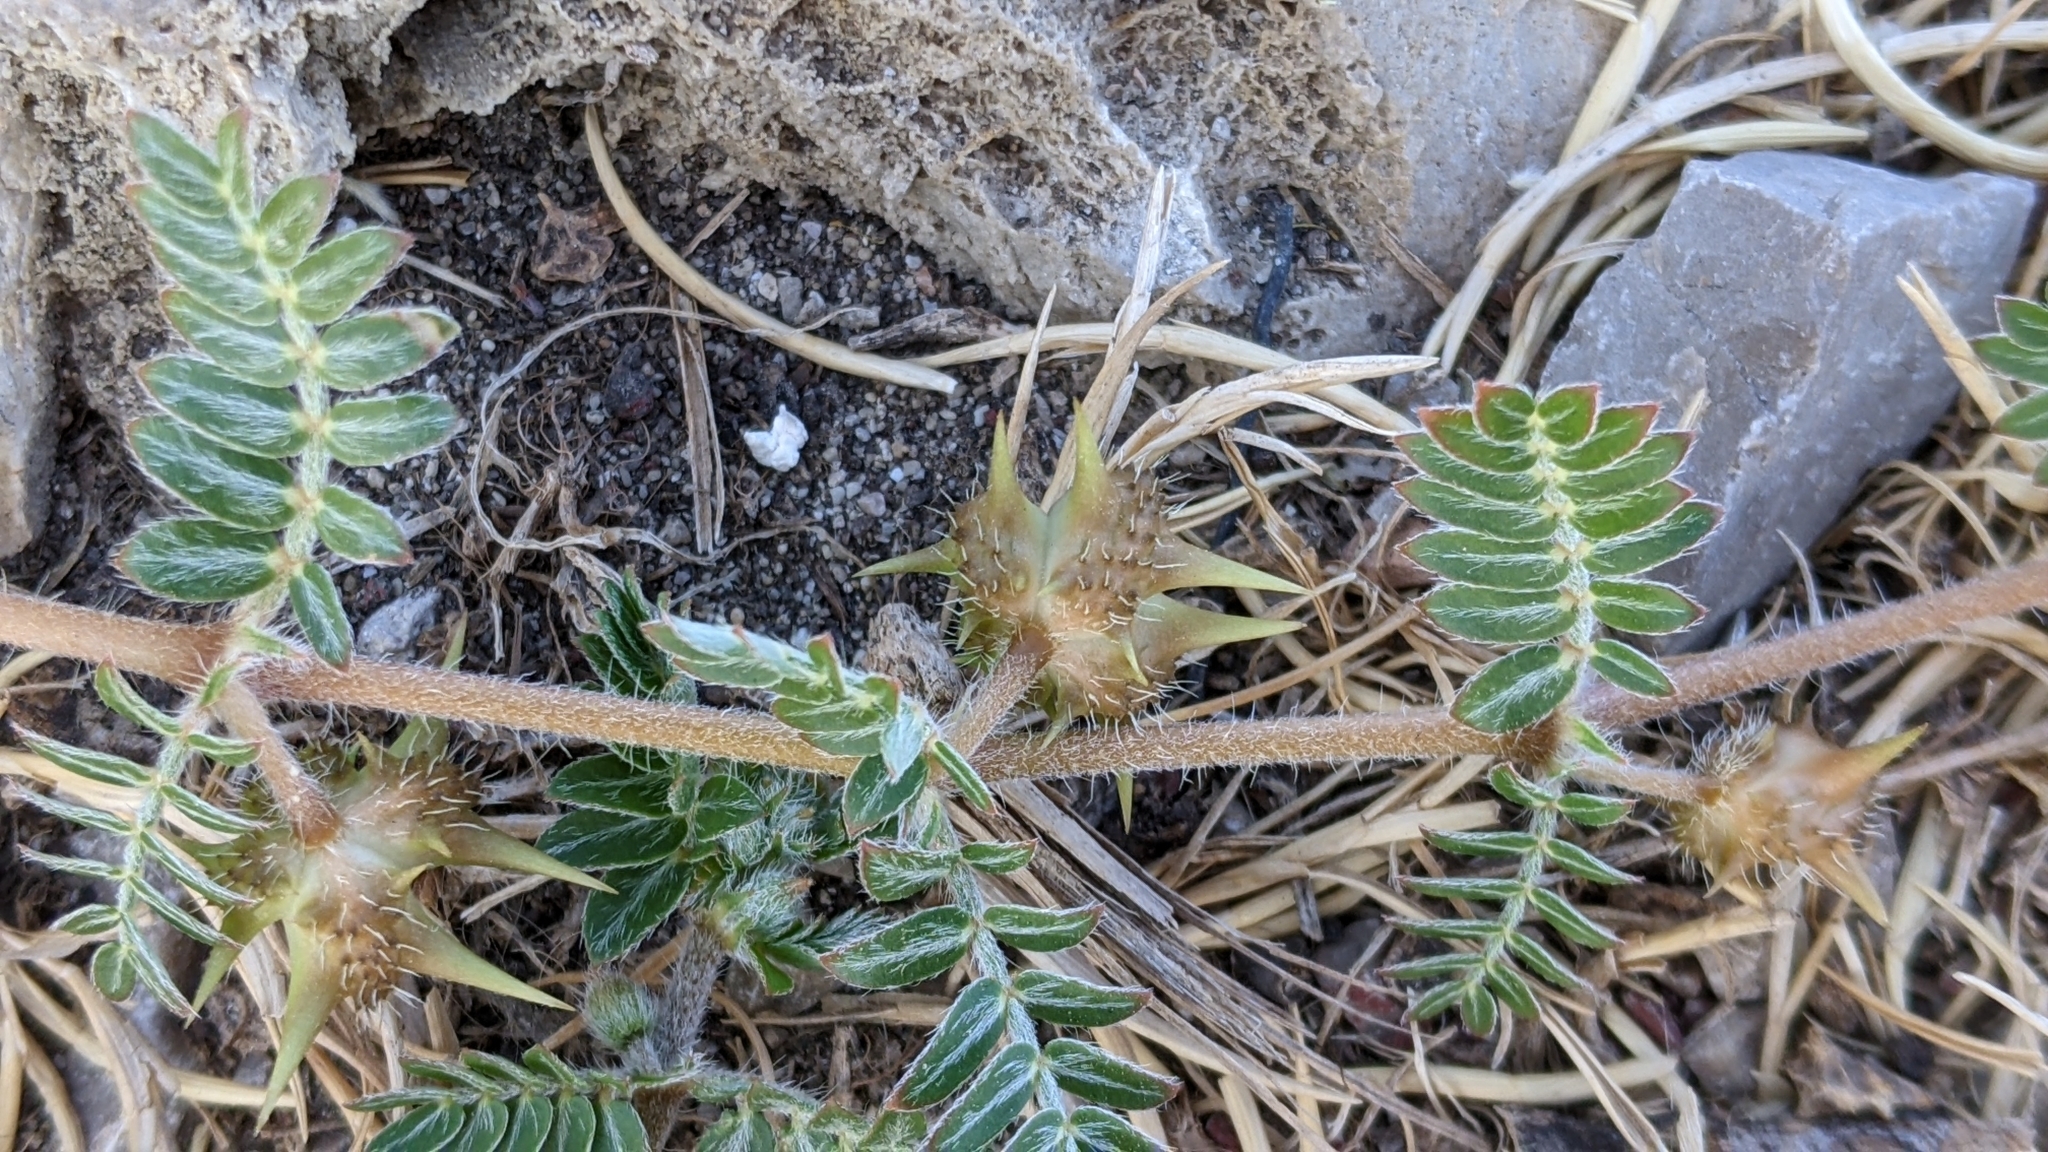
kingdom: Plantae
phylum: Tracheophyta
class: Magnoliopsida
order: Zygophyllales
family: Zygophyllaceae
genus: Tribulus
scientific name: Tribulus terrestris
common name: Puncturevine
